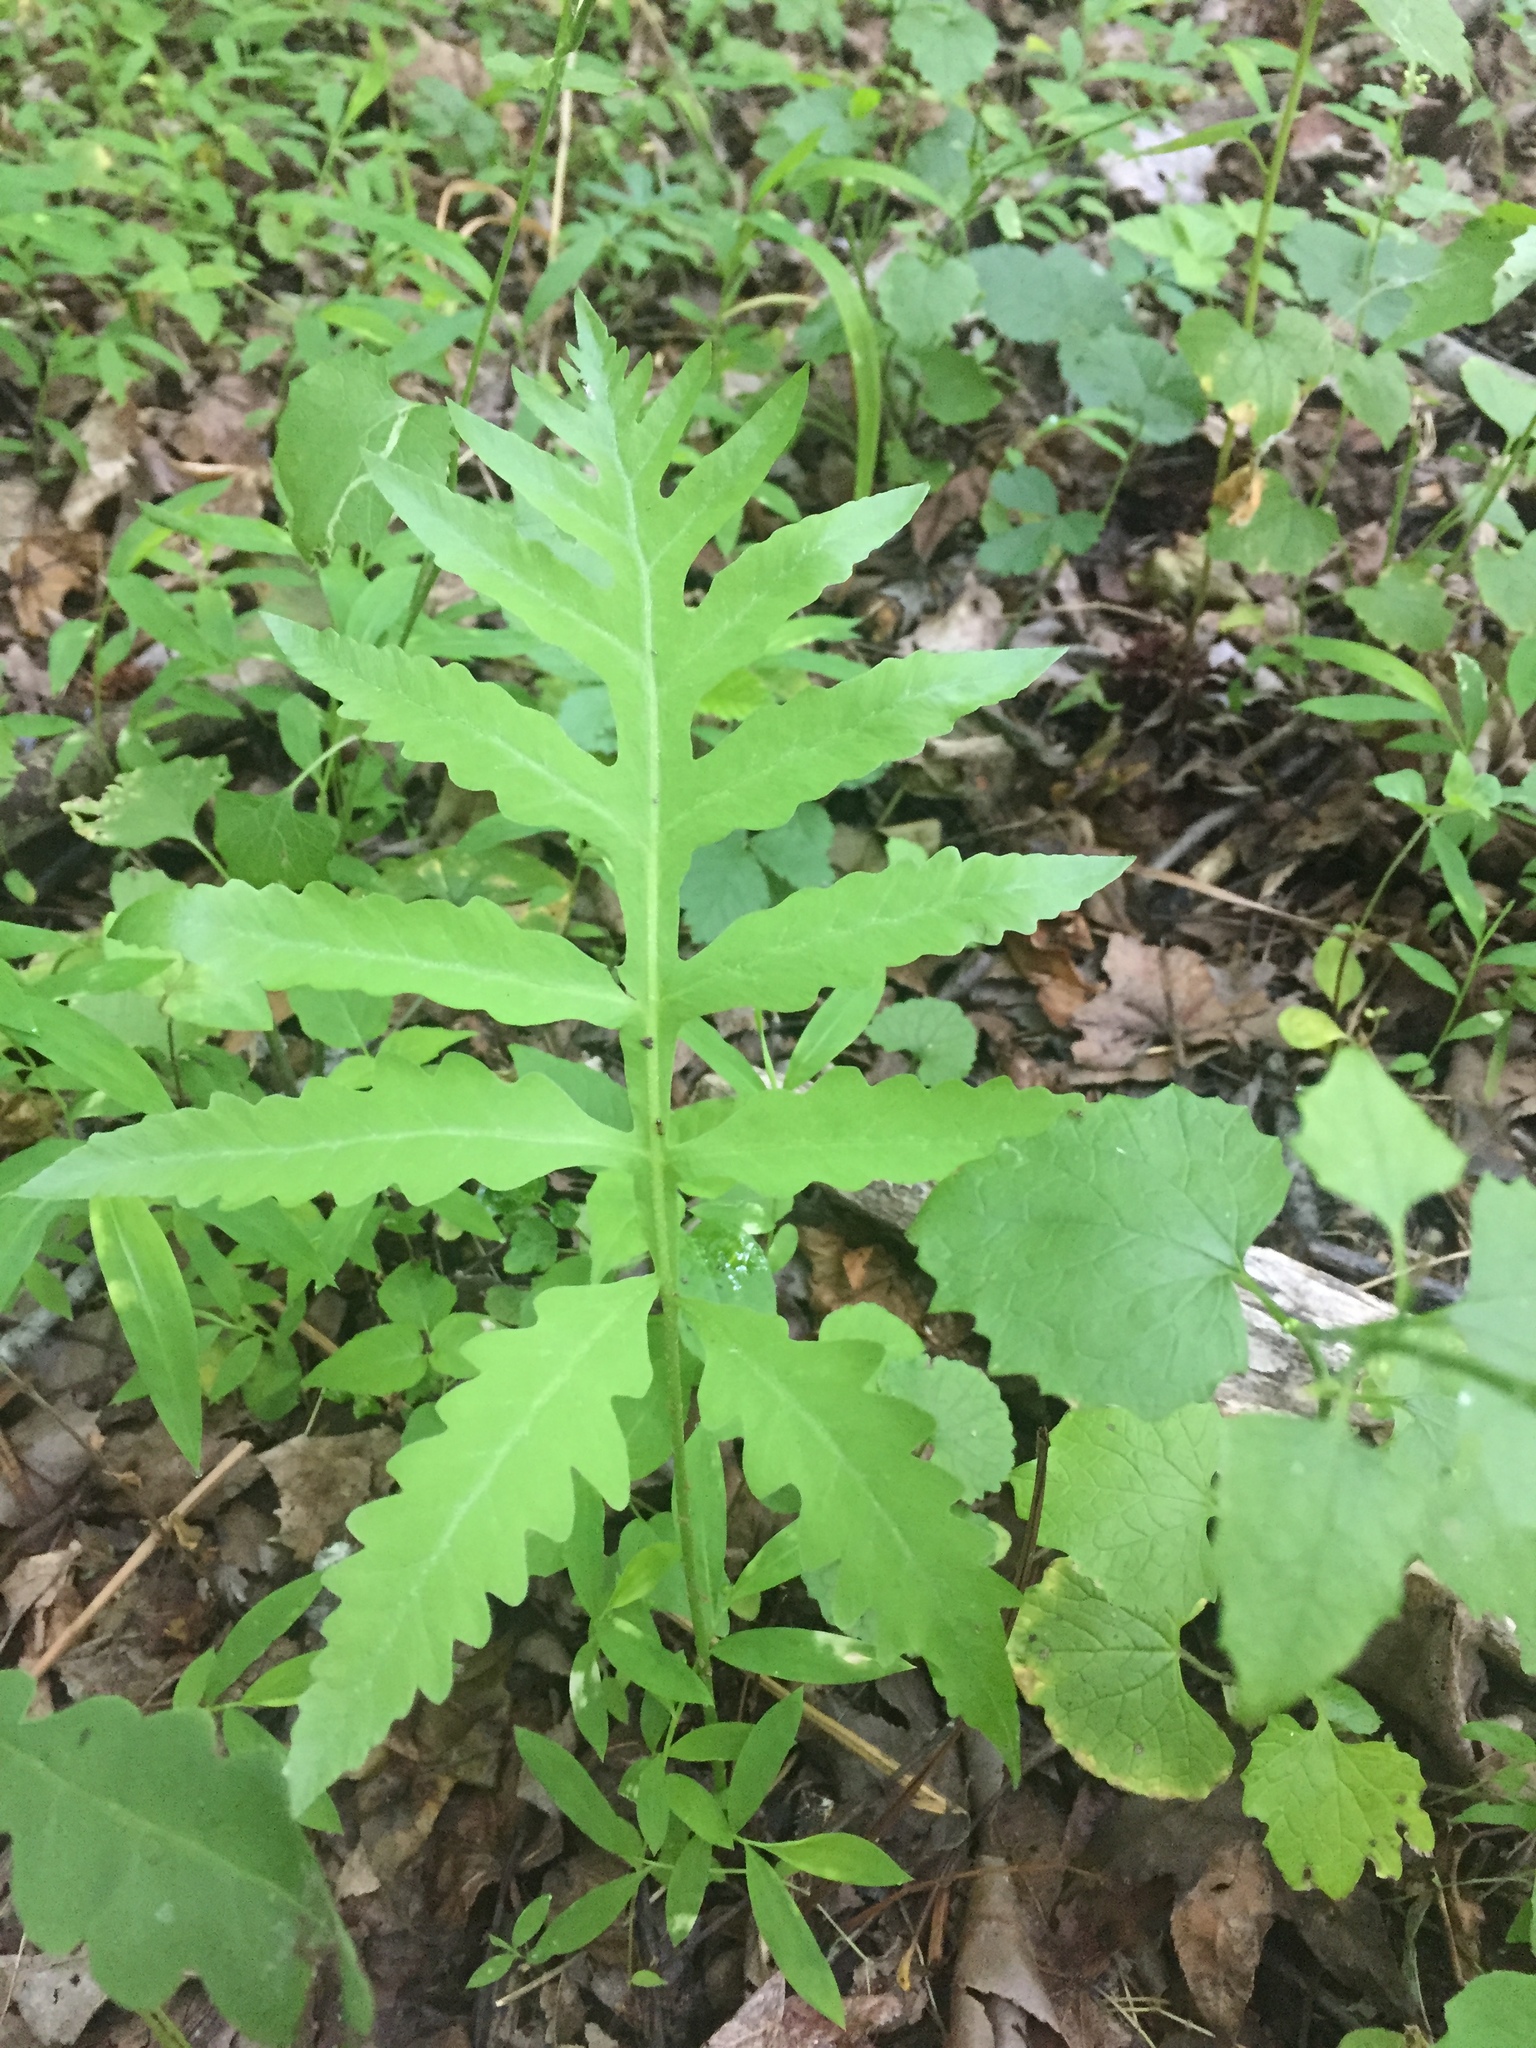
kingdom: Plantae
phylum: Tracheophyta
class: Polypodiopsida
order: Polypodiales
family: Onocleaceae
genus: Onoclea
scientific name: Onoclea sensibilis
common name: Sensitive fern
